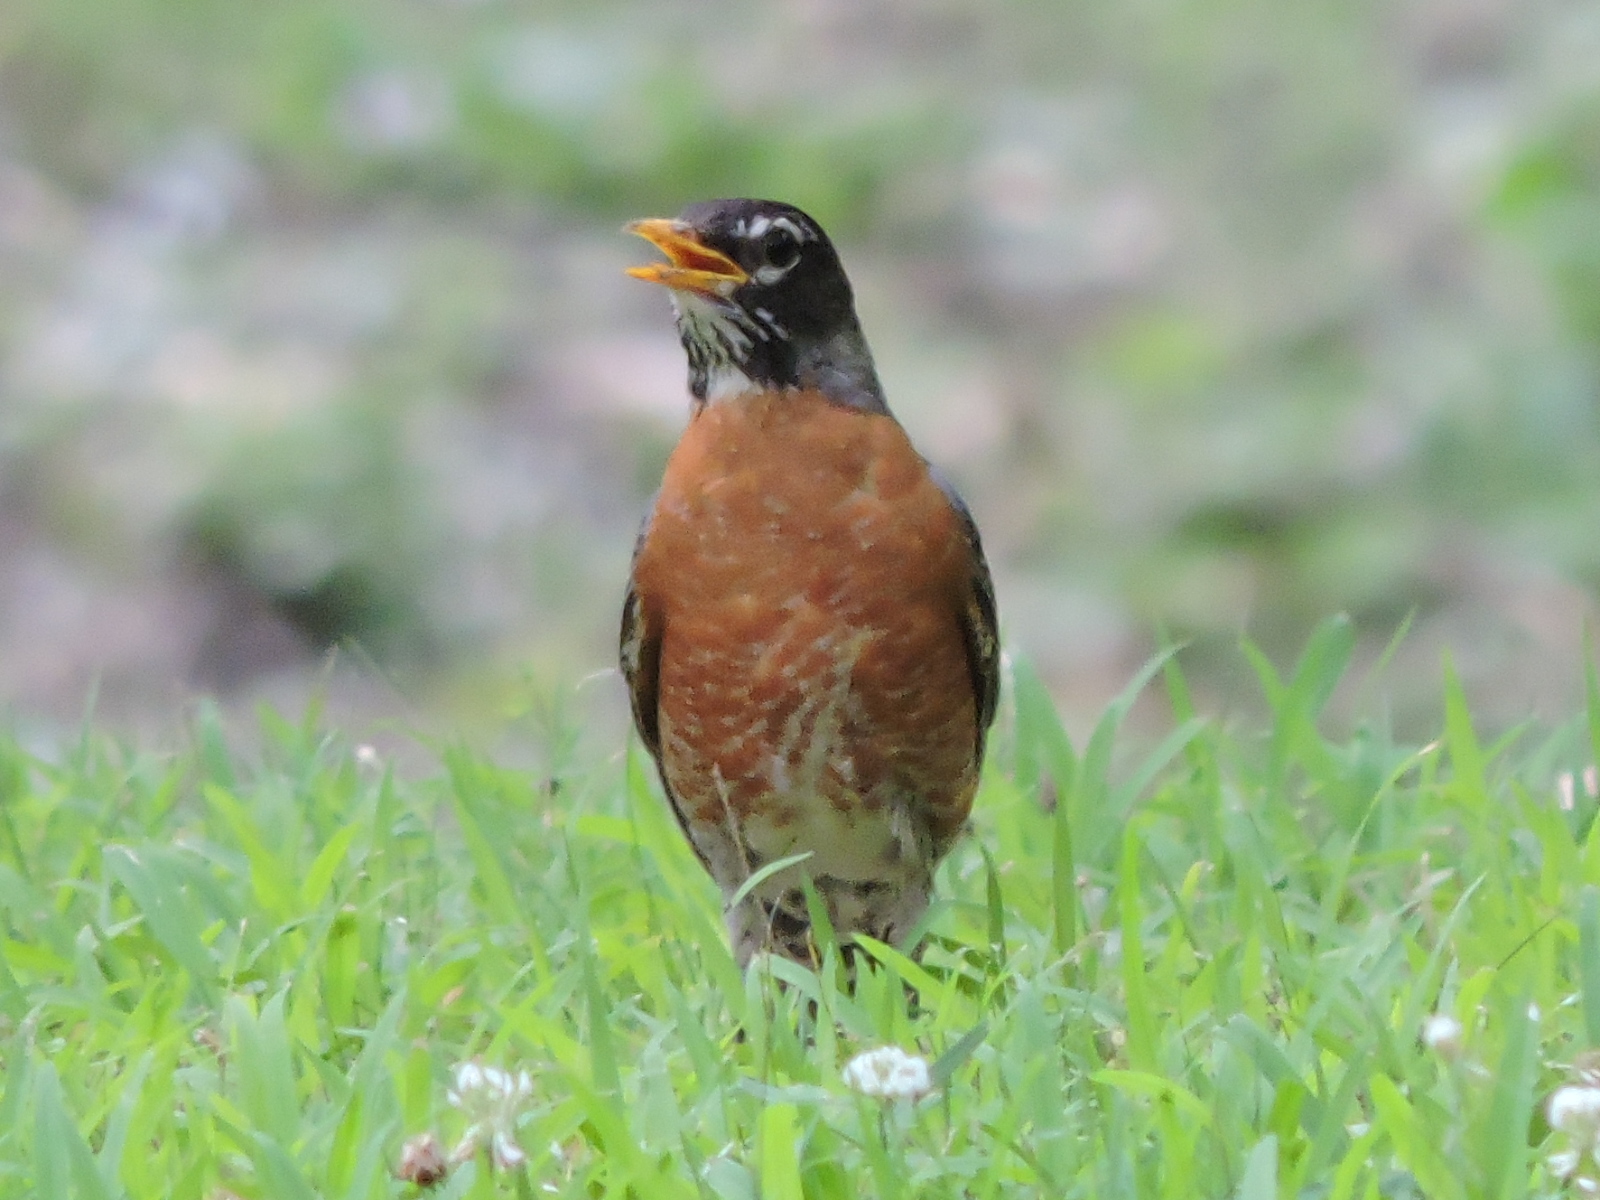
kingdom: Animalia
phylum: Chordata
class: Aves
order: Passeriformes
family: Turdidae
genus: Turdus
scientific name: Turdus migratorius
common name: American robin
